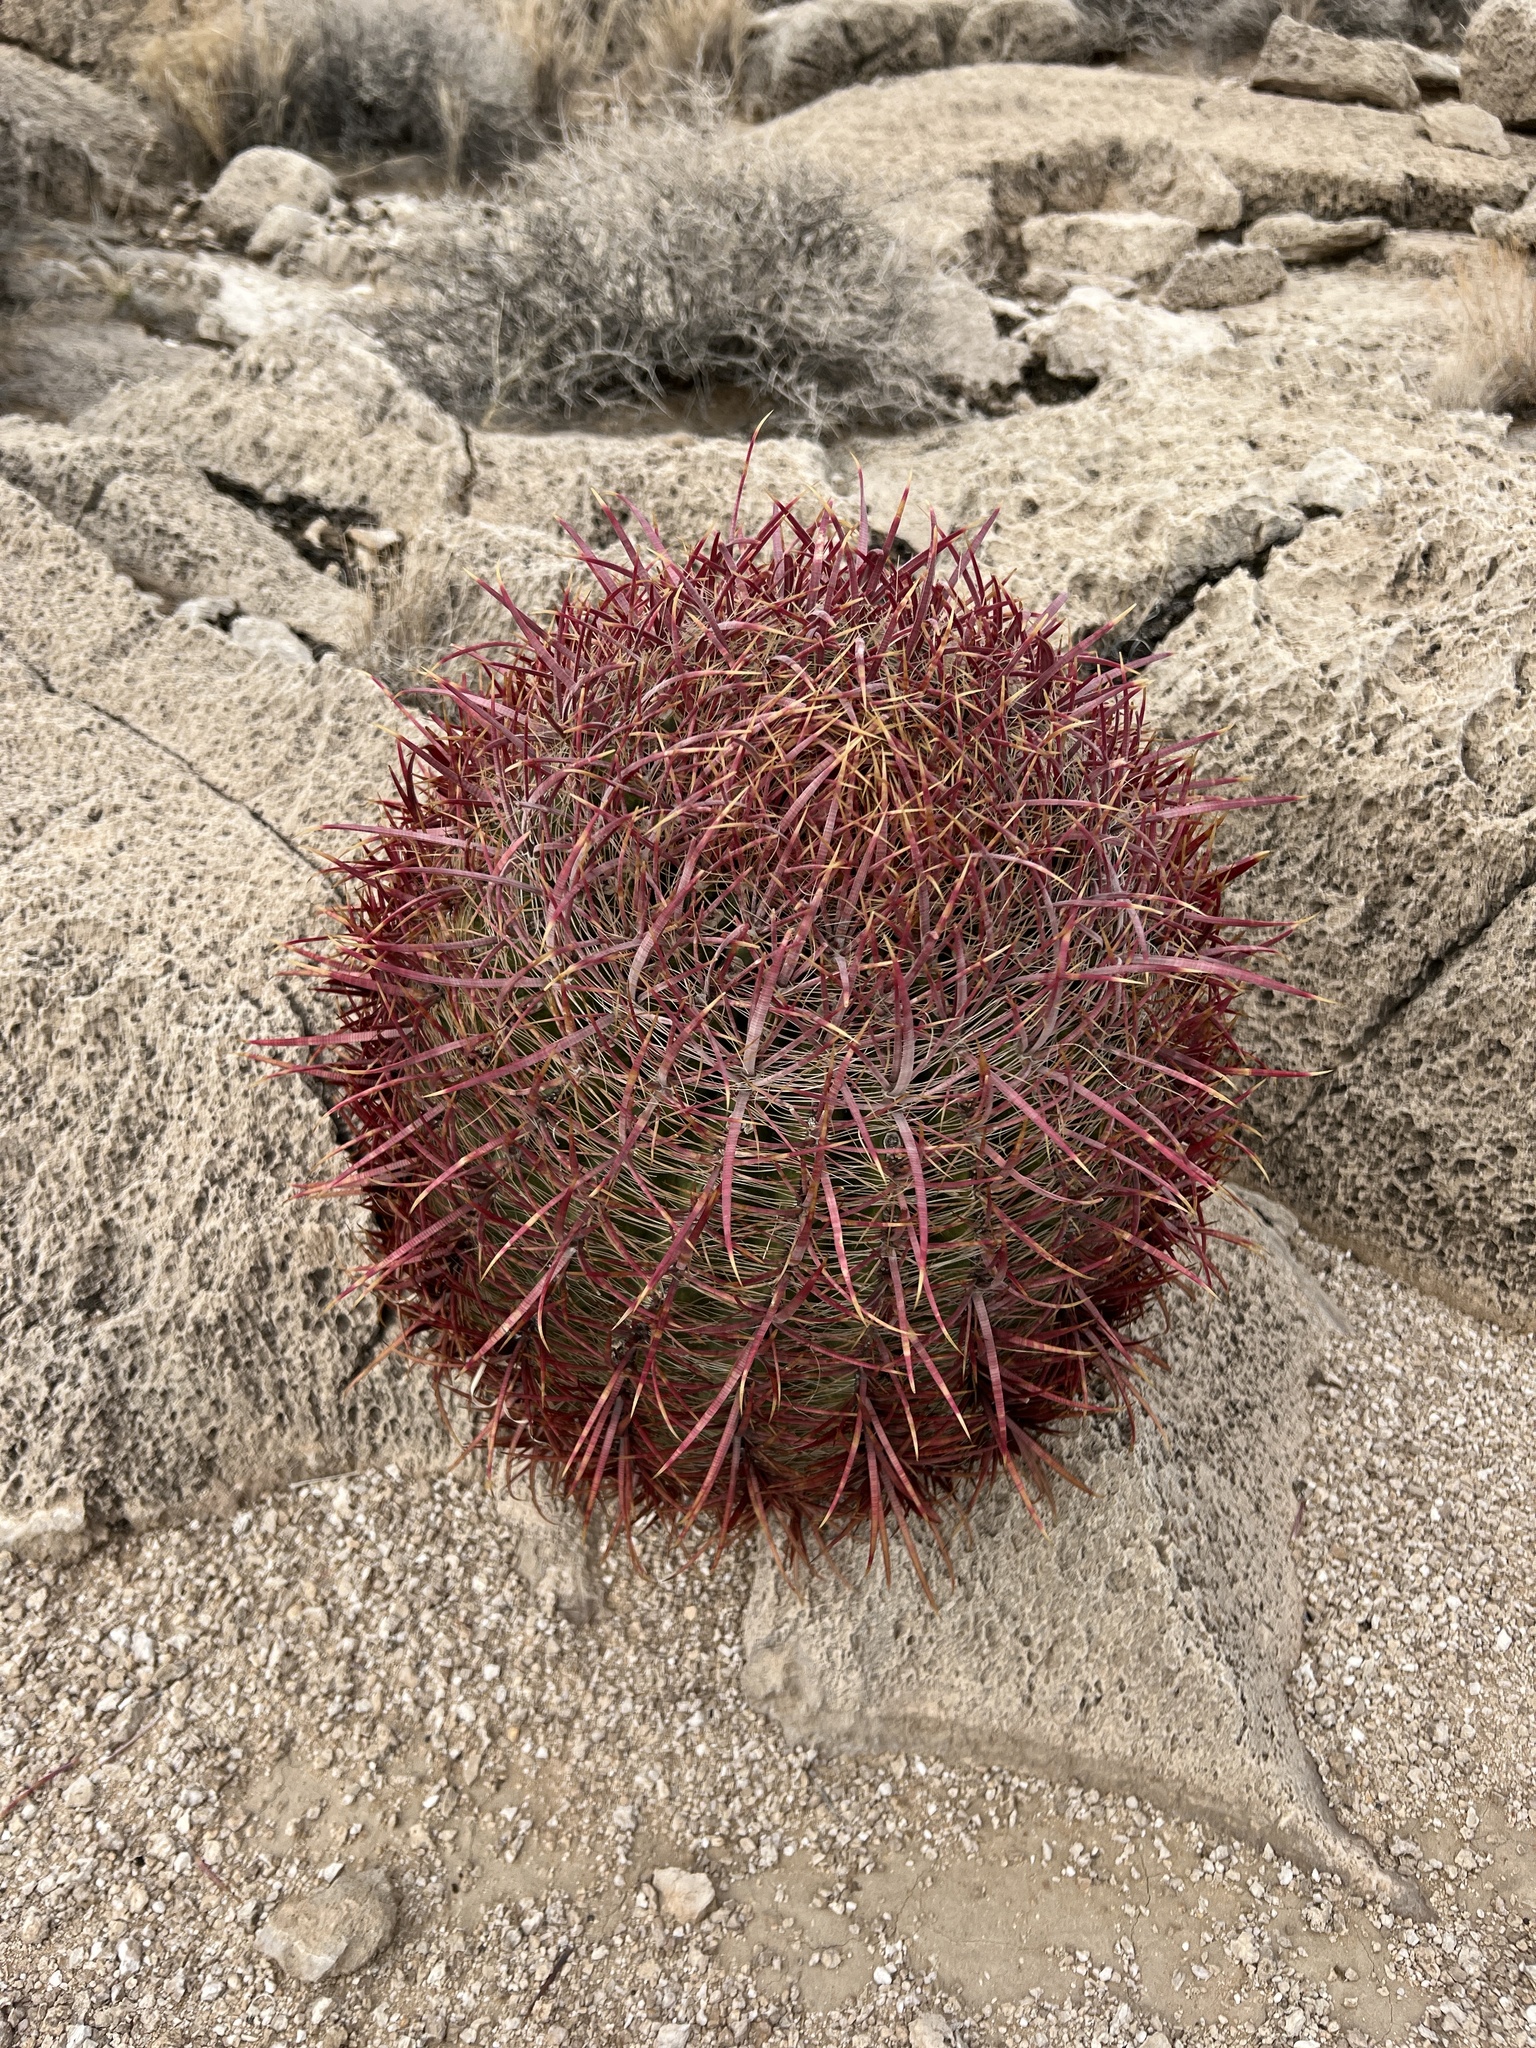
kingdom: Plantae
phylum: Tracheophyta
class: Magnoliopsida
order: Caryophyllales
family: Cactaceae
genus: Ferocactus
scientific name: Ferocactus cylindraceus
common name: California barrel cactus
